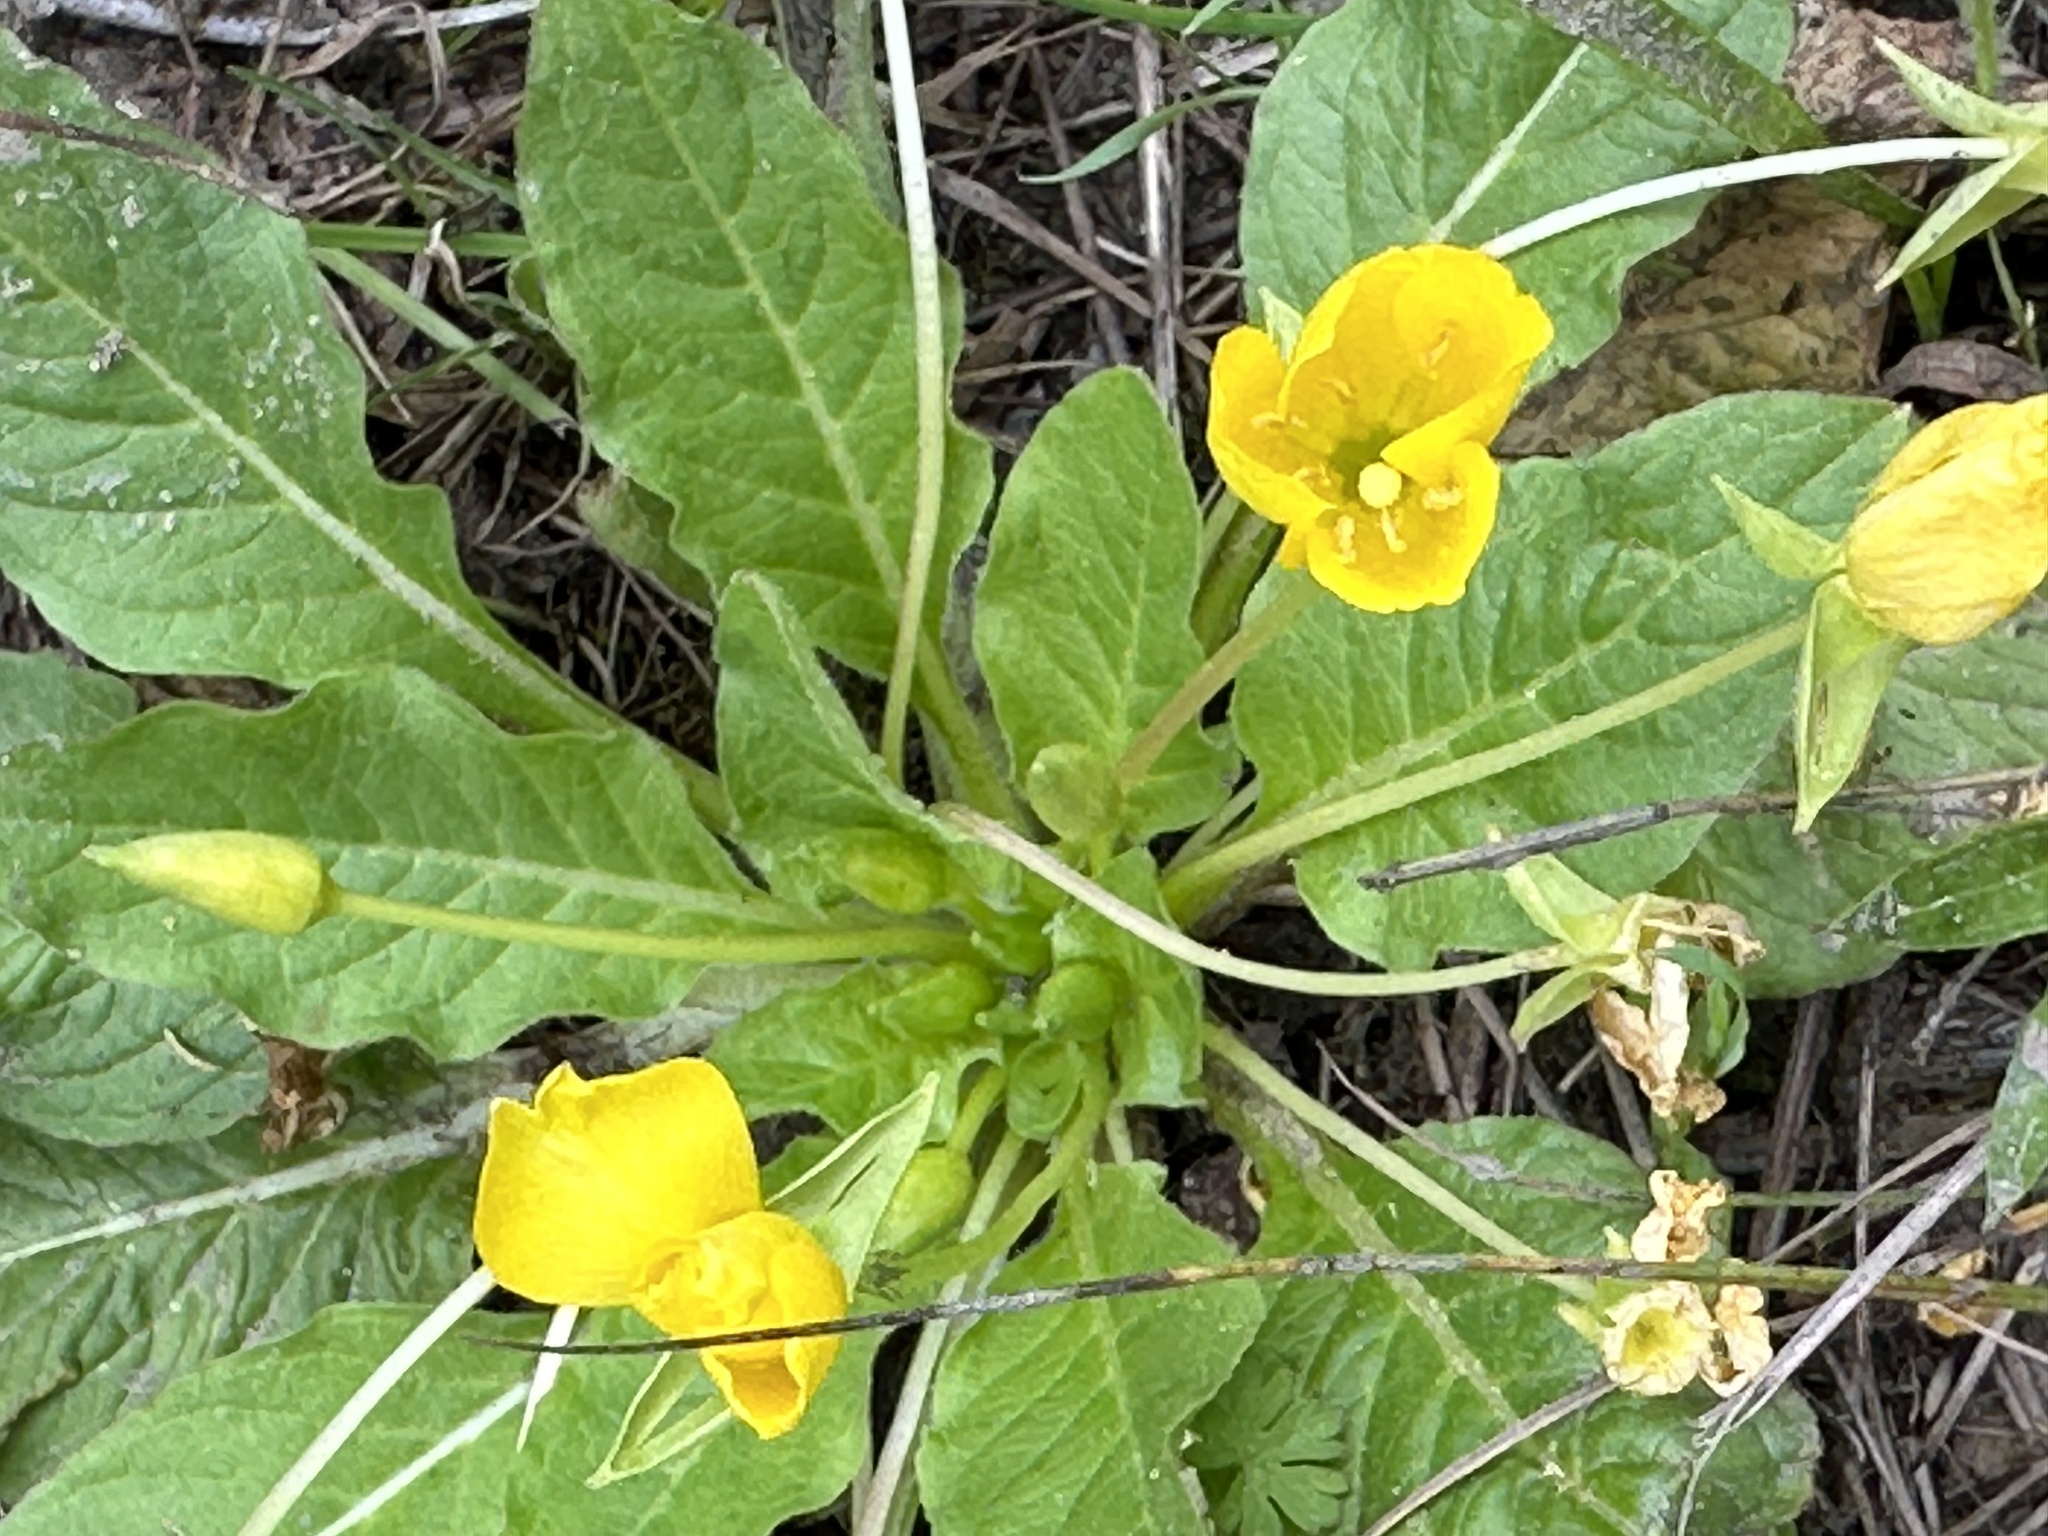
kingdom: Plantae
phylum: Tracheophyta
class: Magnoliopsida
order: Myrtales
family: Onagraceae
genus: Taraxia
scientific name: Taraxia ovata
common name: Goldeneggs
